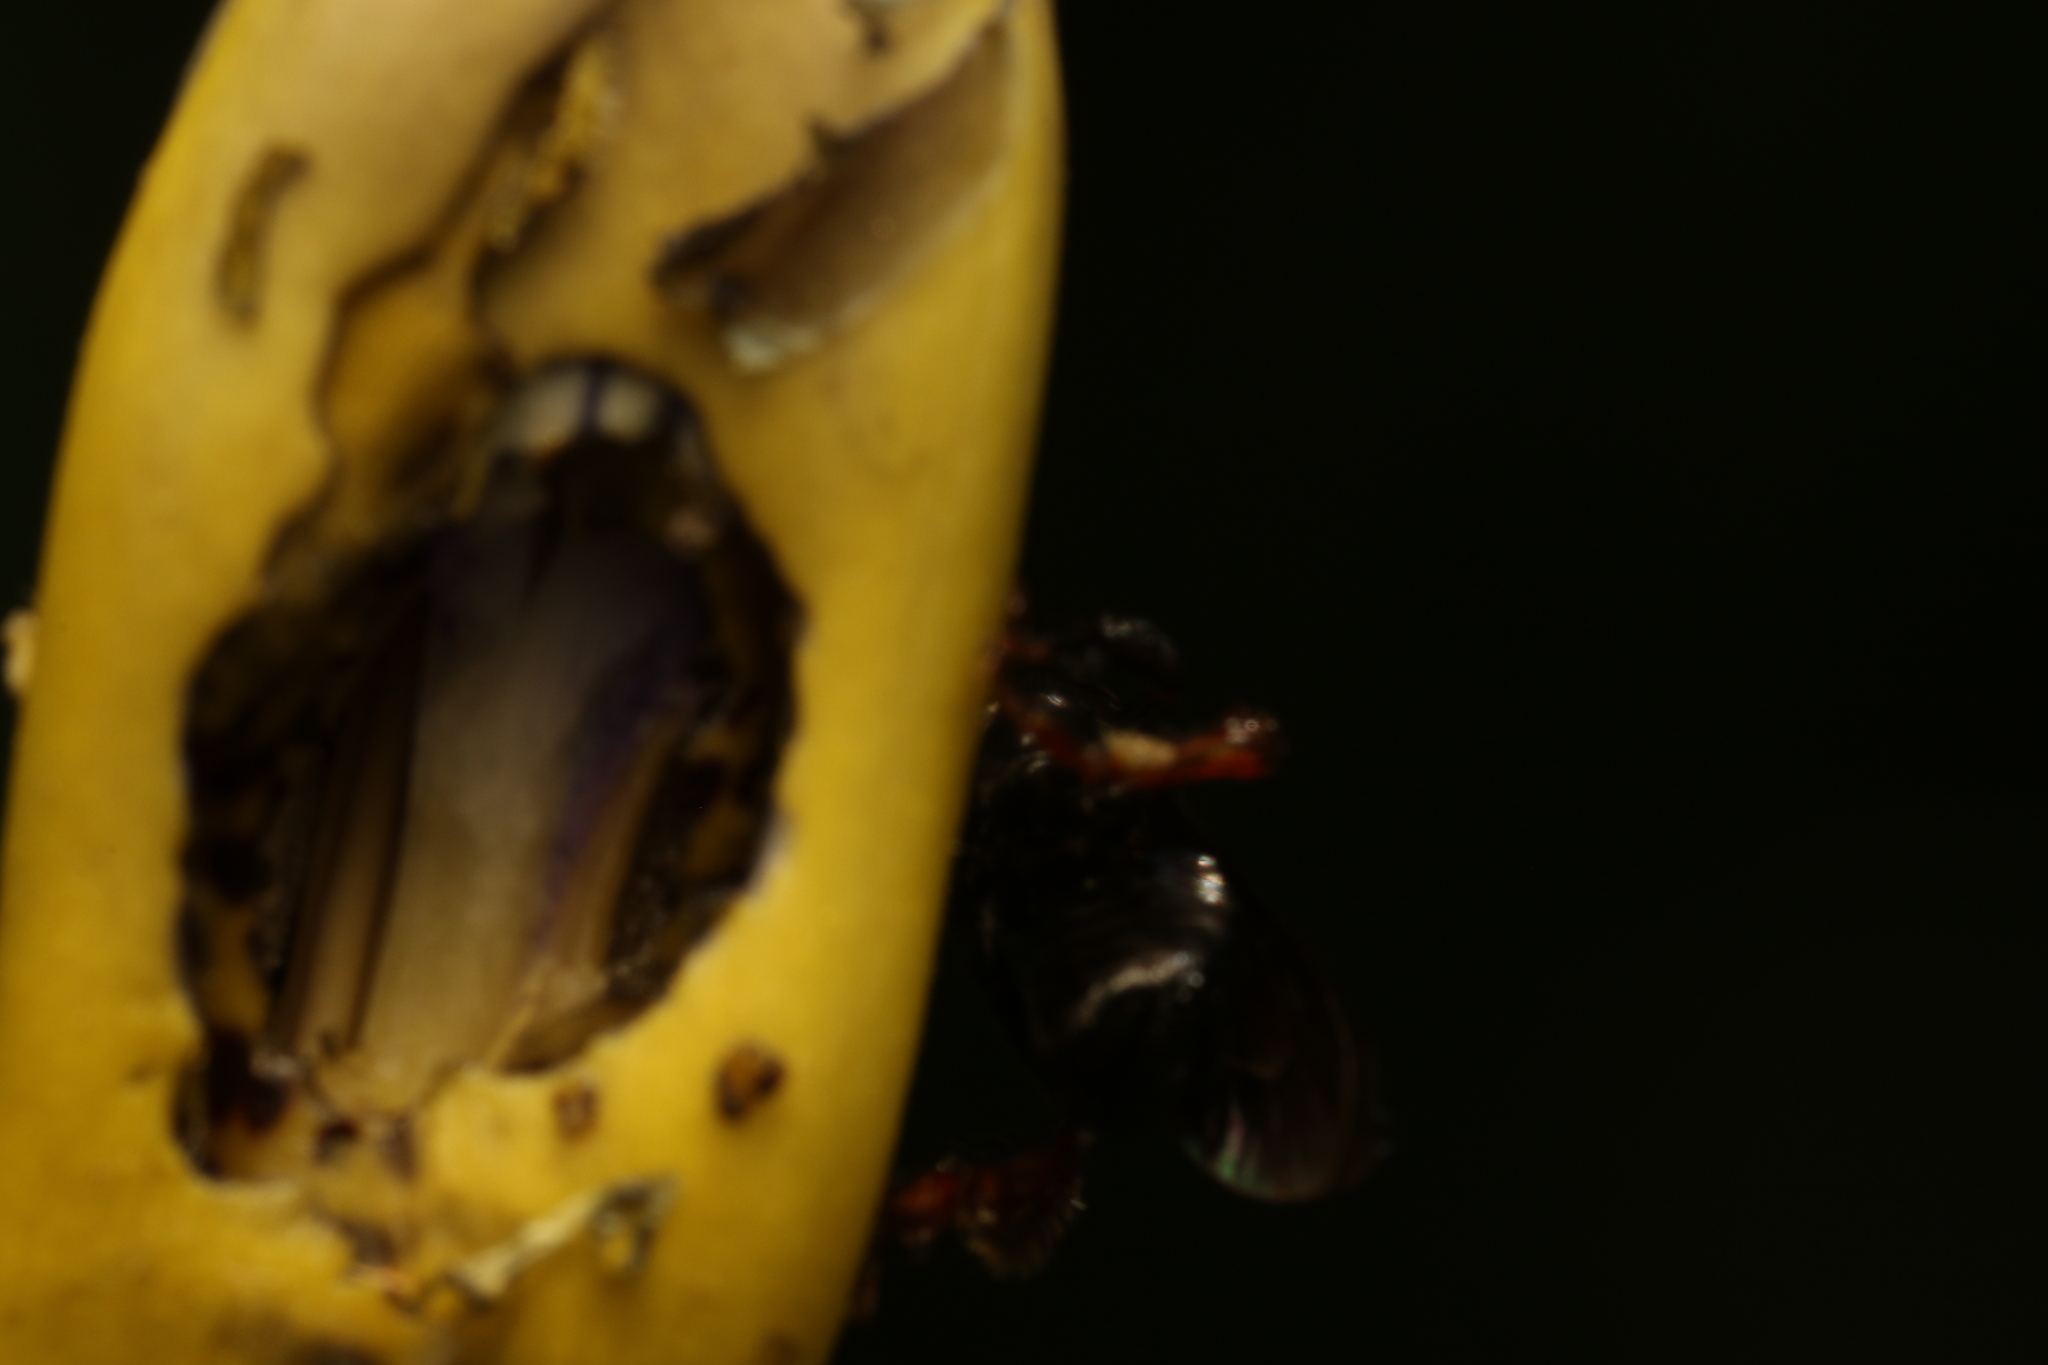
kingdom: Animalia
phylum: Arthropoda
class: Insecta
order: Hymenoptera
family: Apidae
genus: Trigona
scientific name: Trigona spinipes
